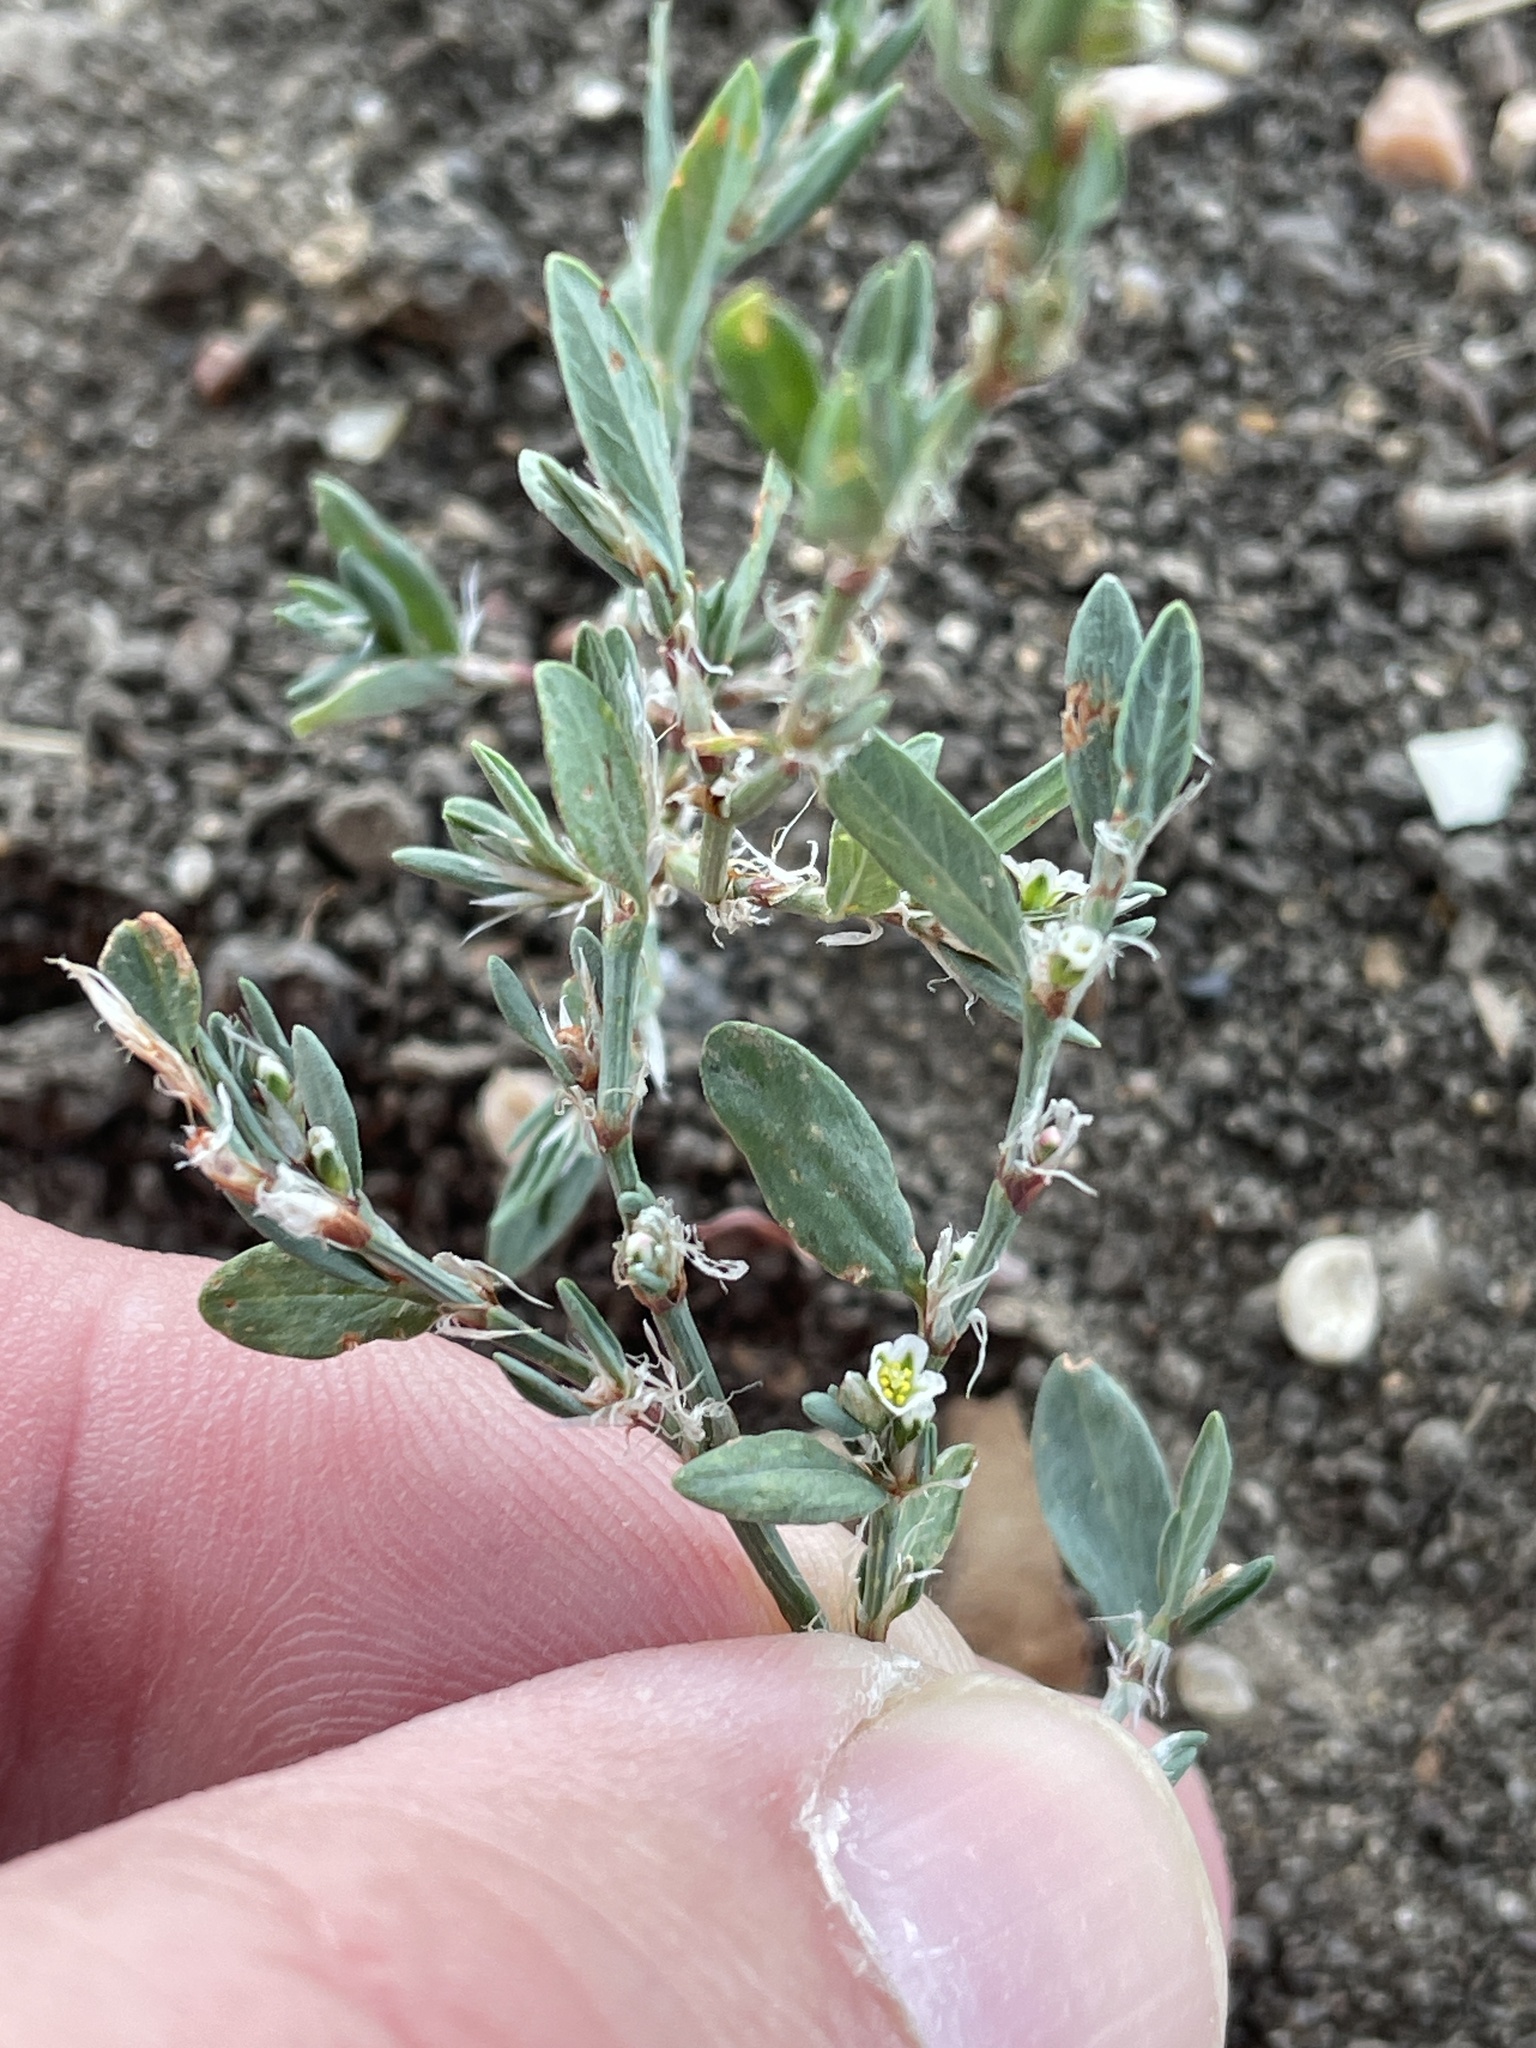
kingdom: Plantae
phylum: Tracheophyta
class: Magnoliopsida
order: Caryophyllales
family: Polygonaceae
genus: Polygonum
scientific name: Polygonum aviculare
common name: Prostrate knotweed
